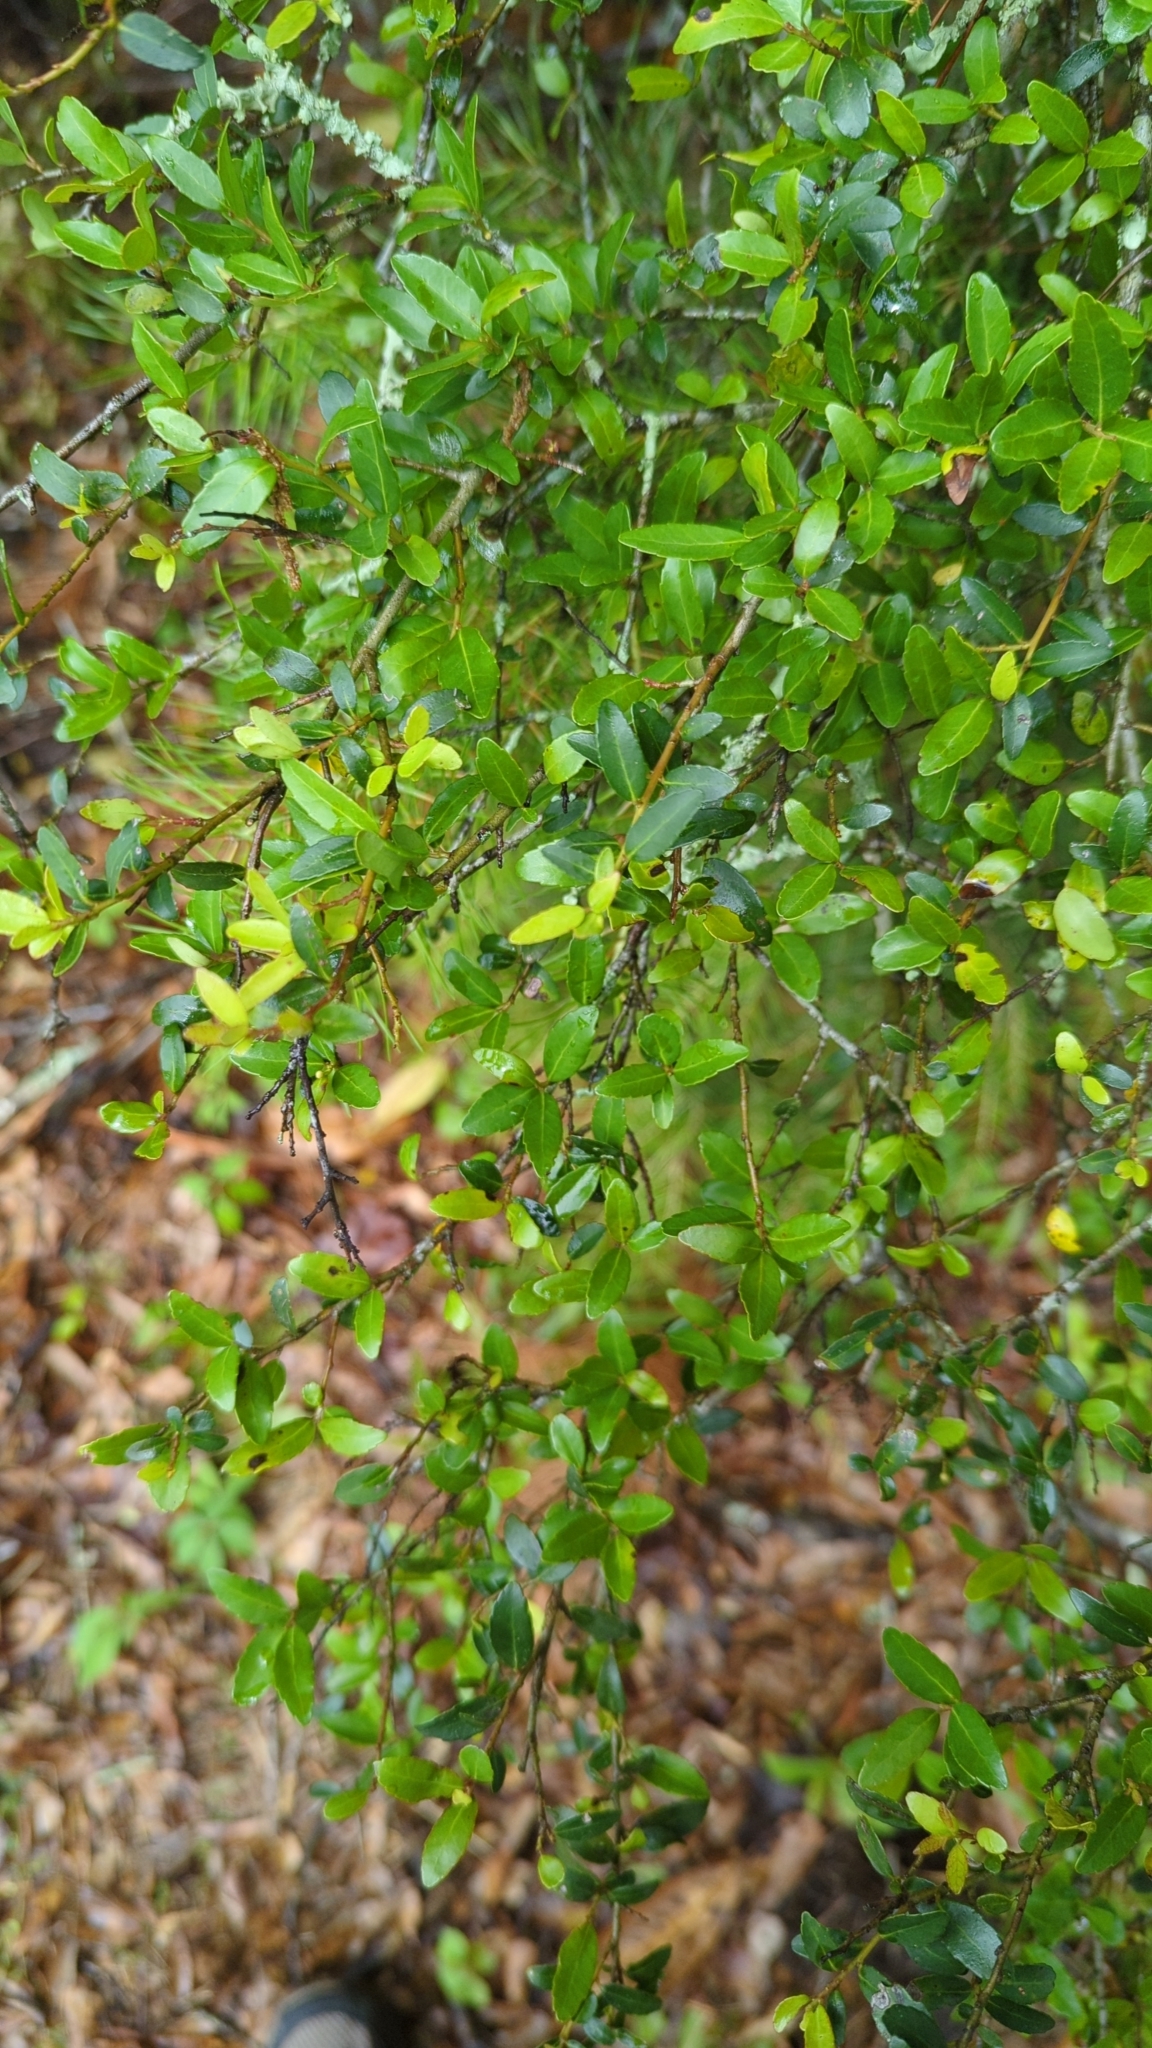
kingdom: Plantae
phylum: Tracheophyta
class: Magnoliopsida
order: Aquifoliales
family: Aquifoliaceae
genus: Ilex
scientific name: Ilex vomitoria
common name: Yaupon holly
